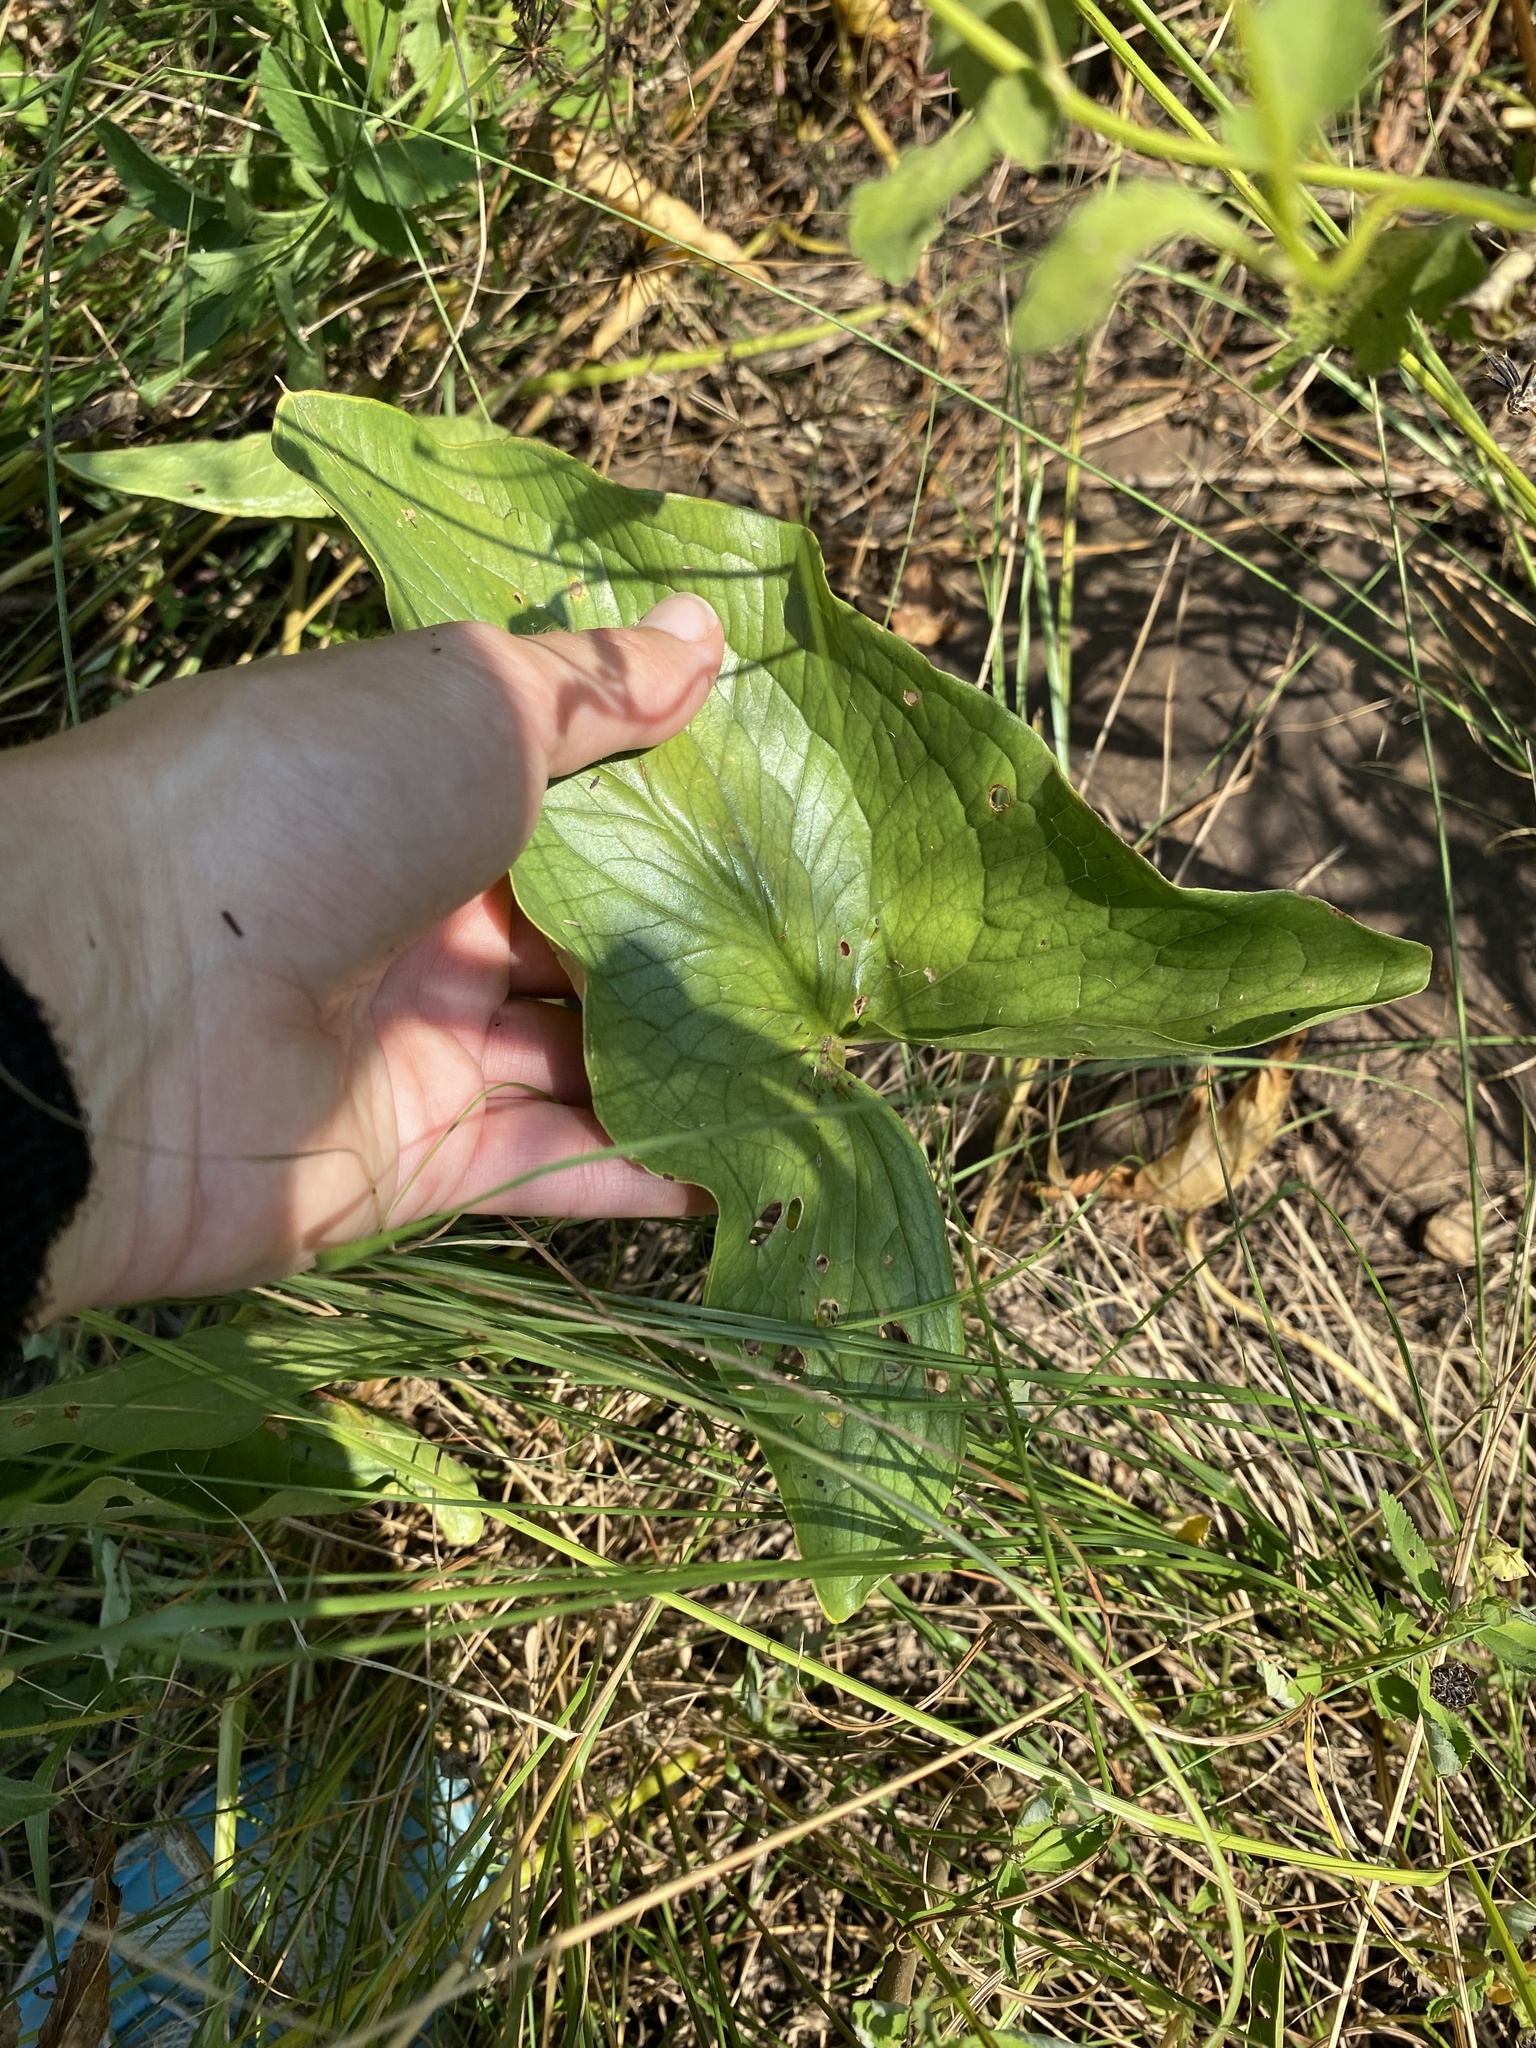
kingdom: Plantae
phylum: Tracheophyta
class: Liliopsida
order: Alismatales
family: Araceae
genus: Stylochaeton
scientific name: Stylochaeton natalensis
